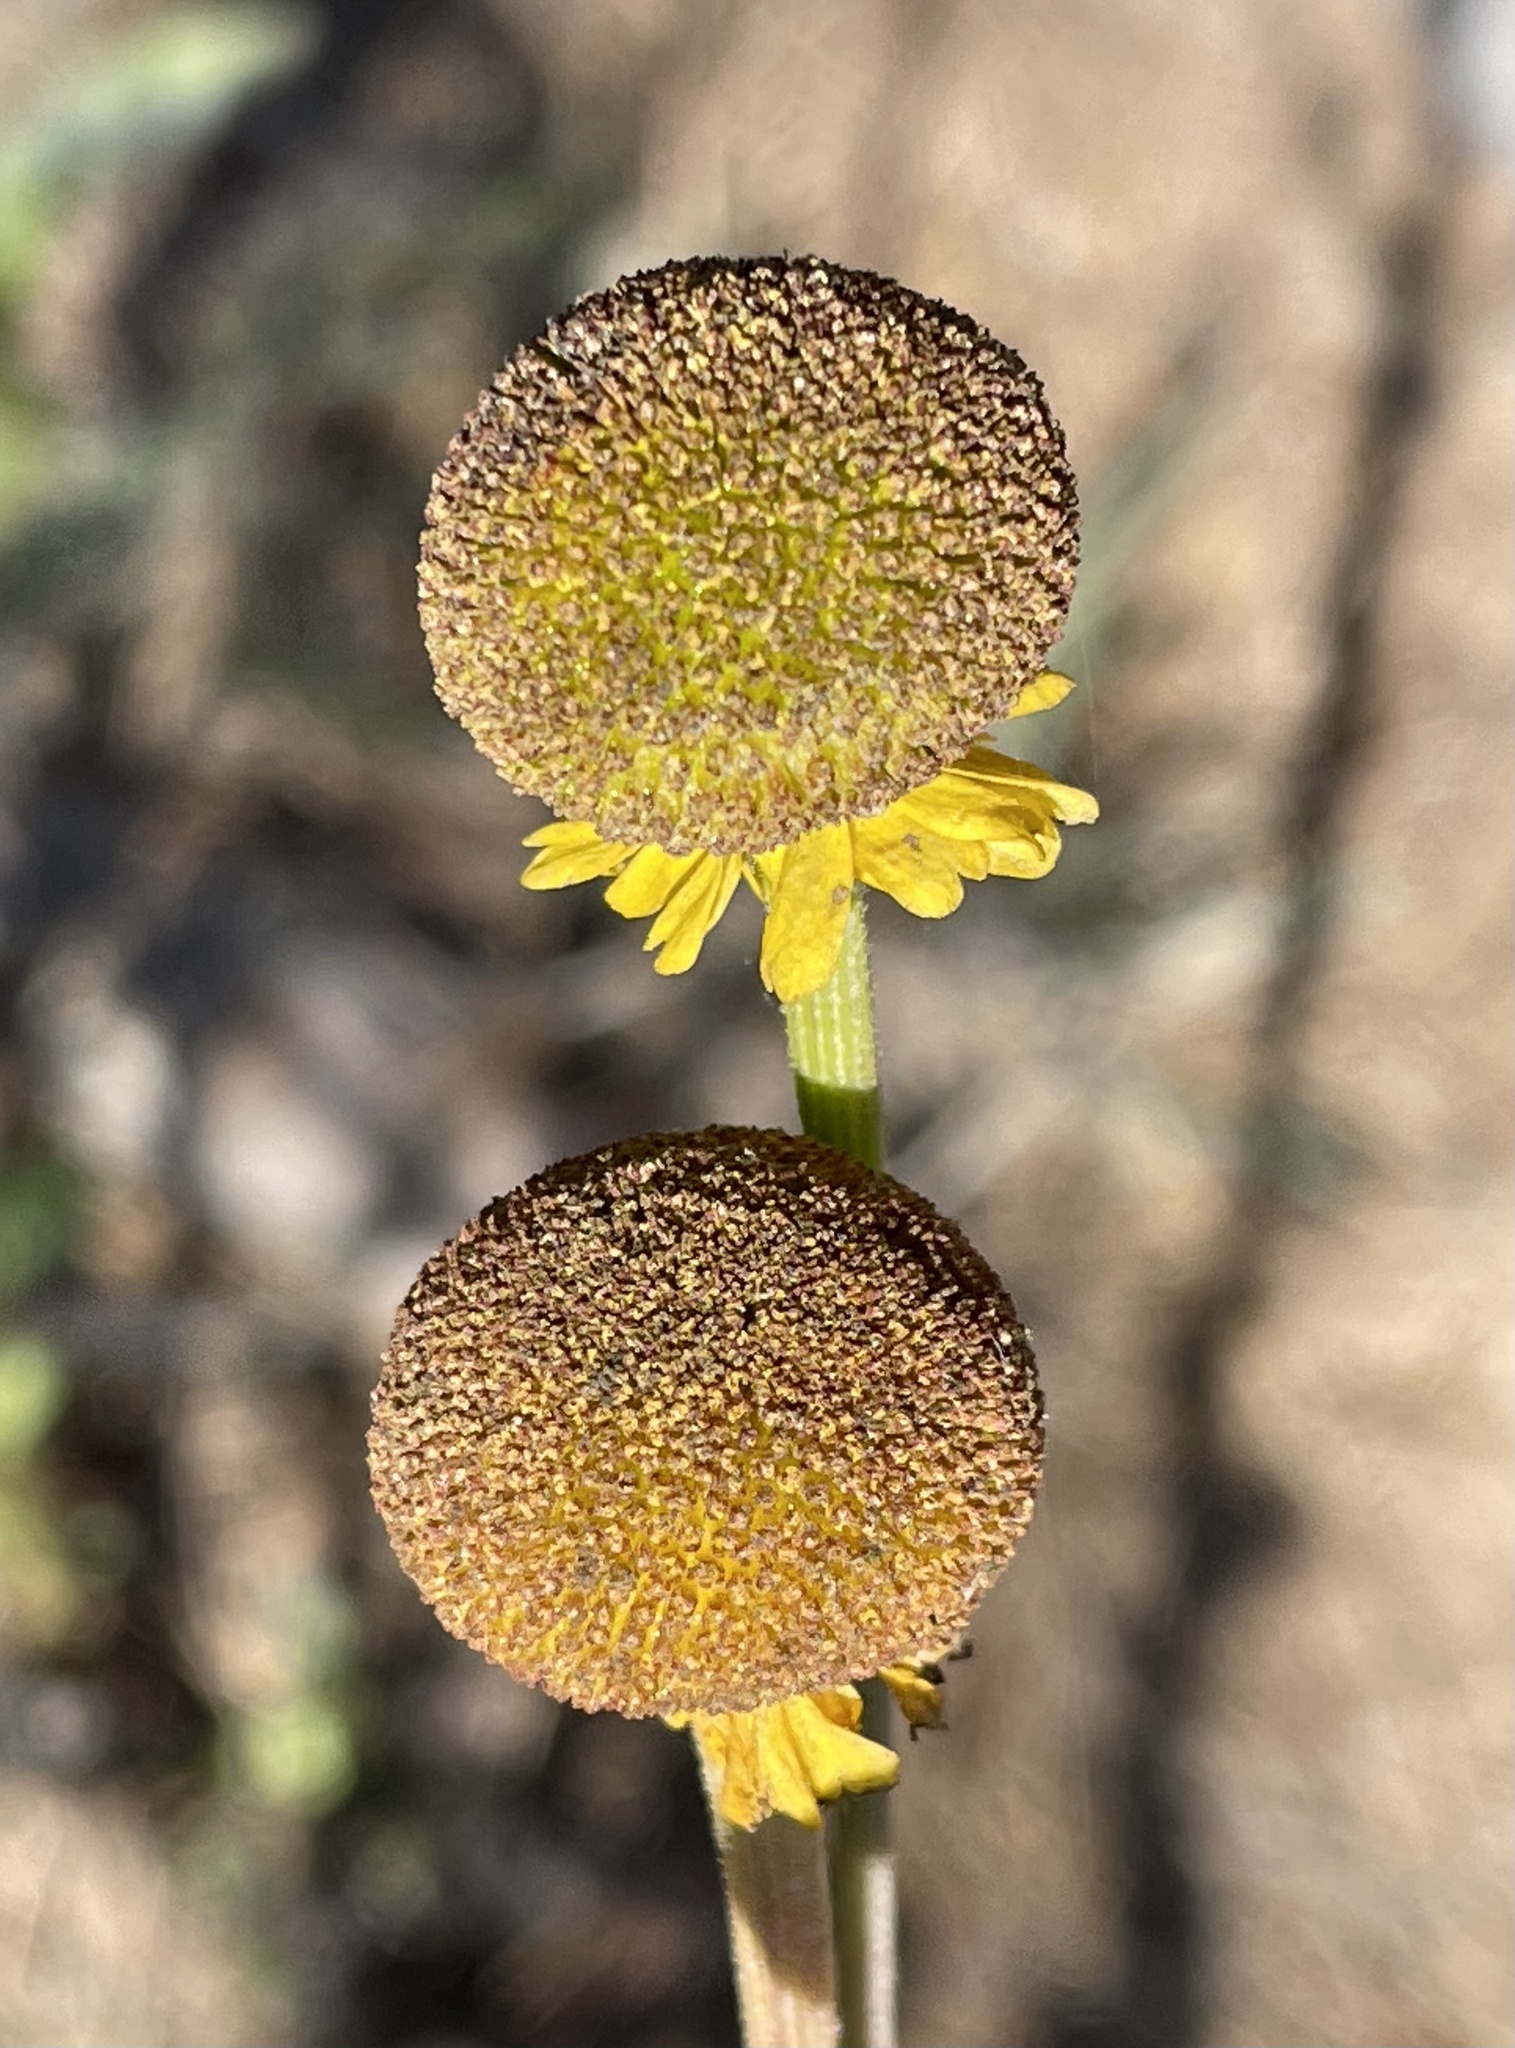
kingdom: Plantae
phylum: Tracheophyta
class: Magnoliopsida
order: Asterales
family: Asteraceae
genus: Helenium
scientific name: Helenium puberulum
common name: Sneezewort
